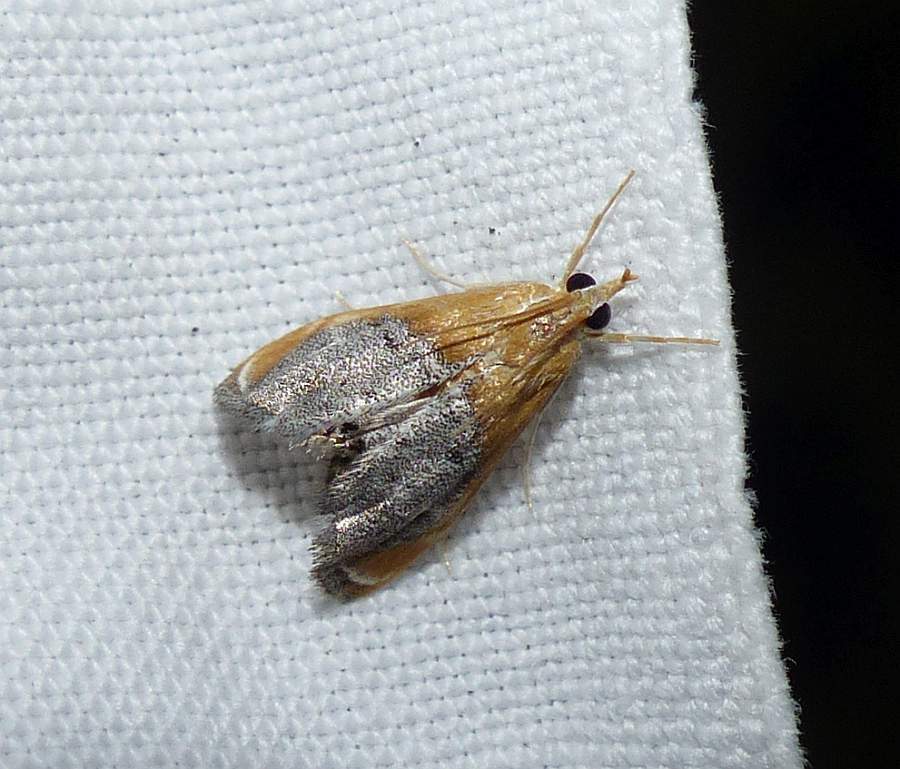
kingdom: Animalia
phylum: Arthropoda
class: Insecta
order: Lepidoptera
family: Crambidae
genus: Chalcoela
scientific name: Chalcoela iphitalis
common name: Sooty-winged chalcoela moth
